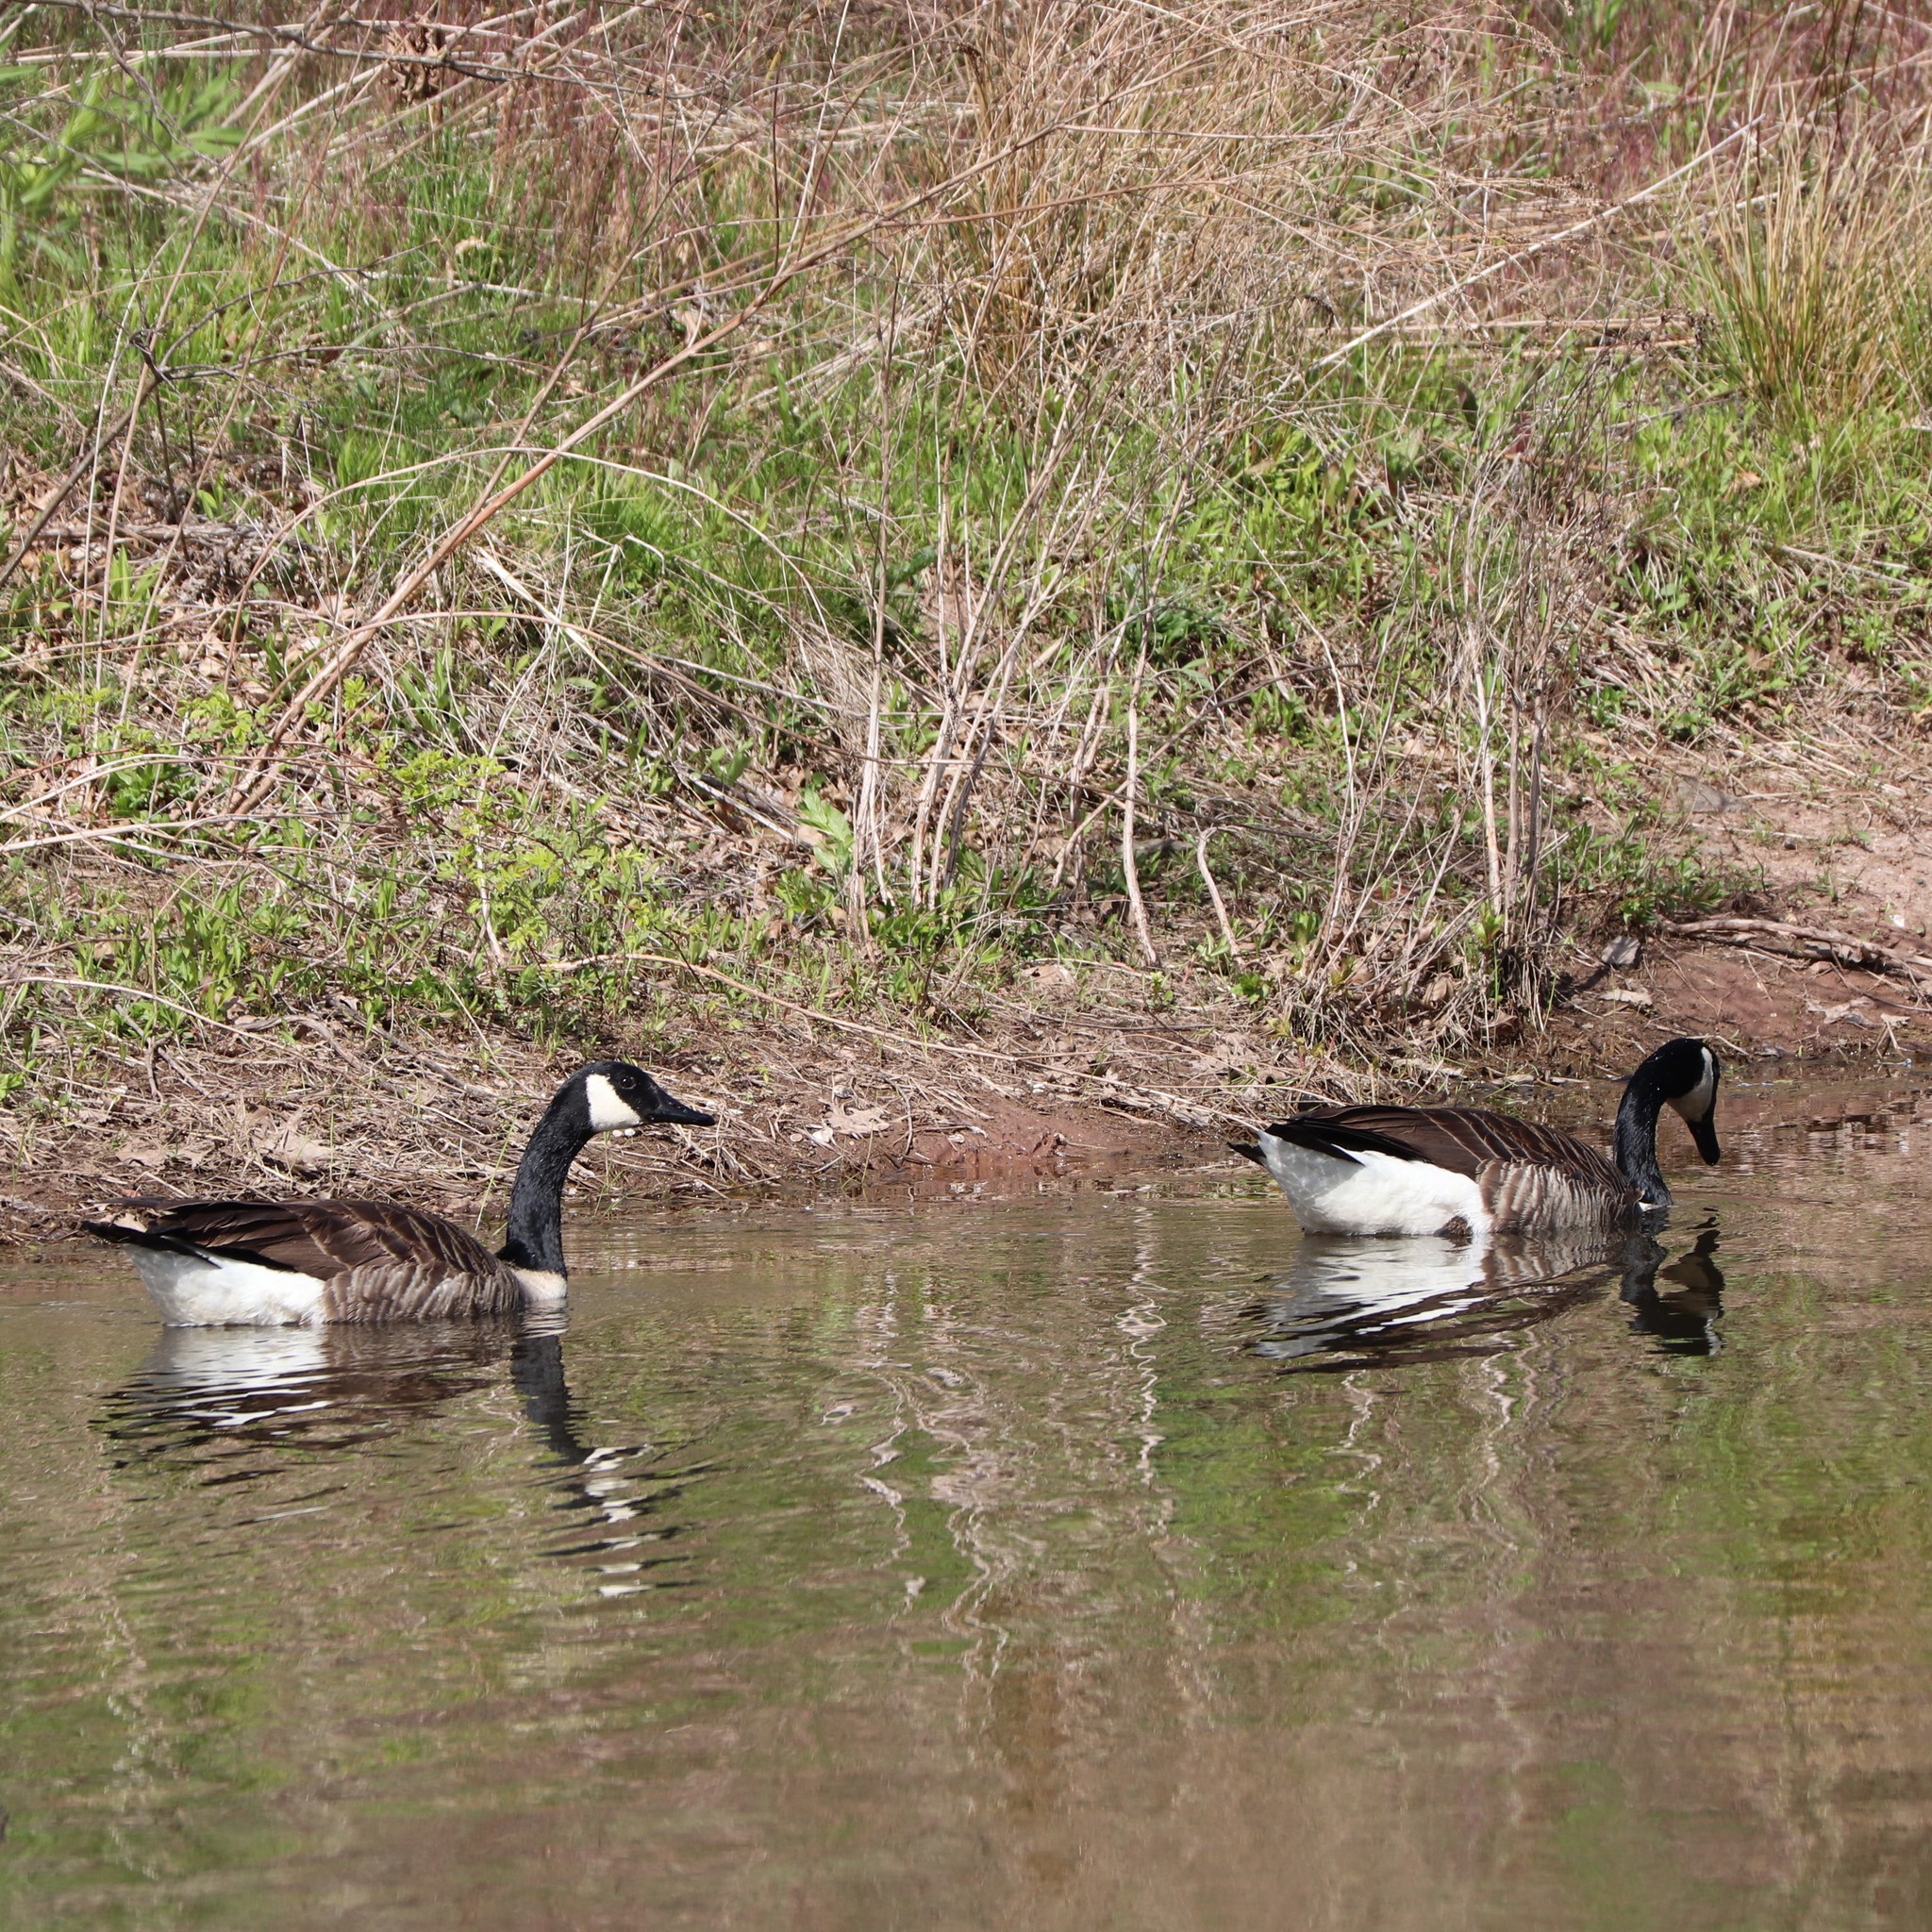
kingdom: Animalia
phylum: Chordata
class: Aves
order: Anseriformes
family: Anatidae
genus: Branta
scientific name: Branta canadensis
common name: Canada goose
